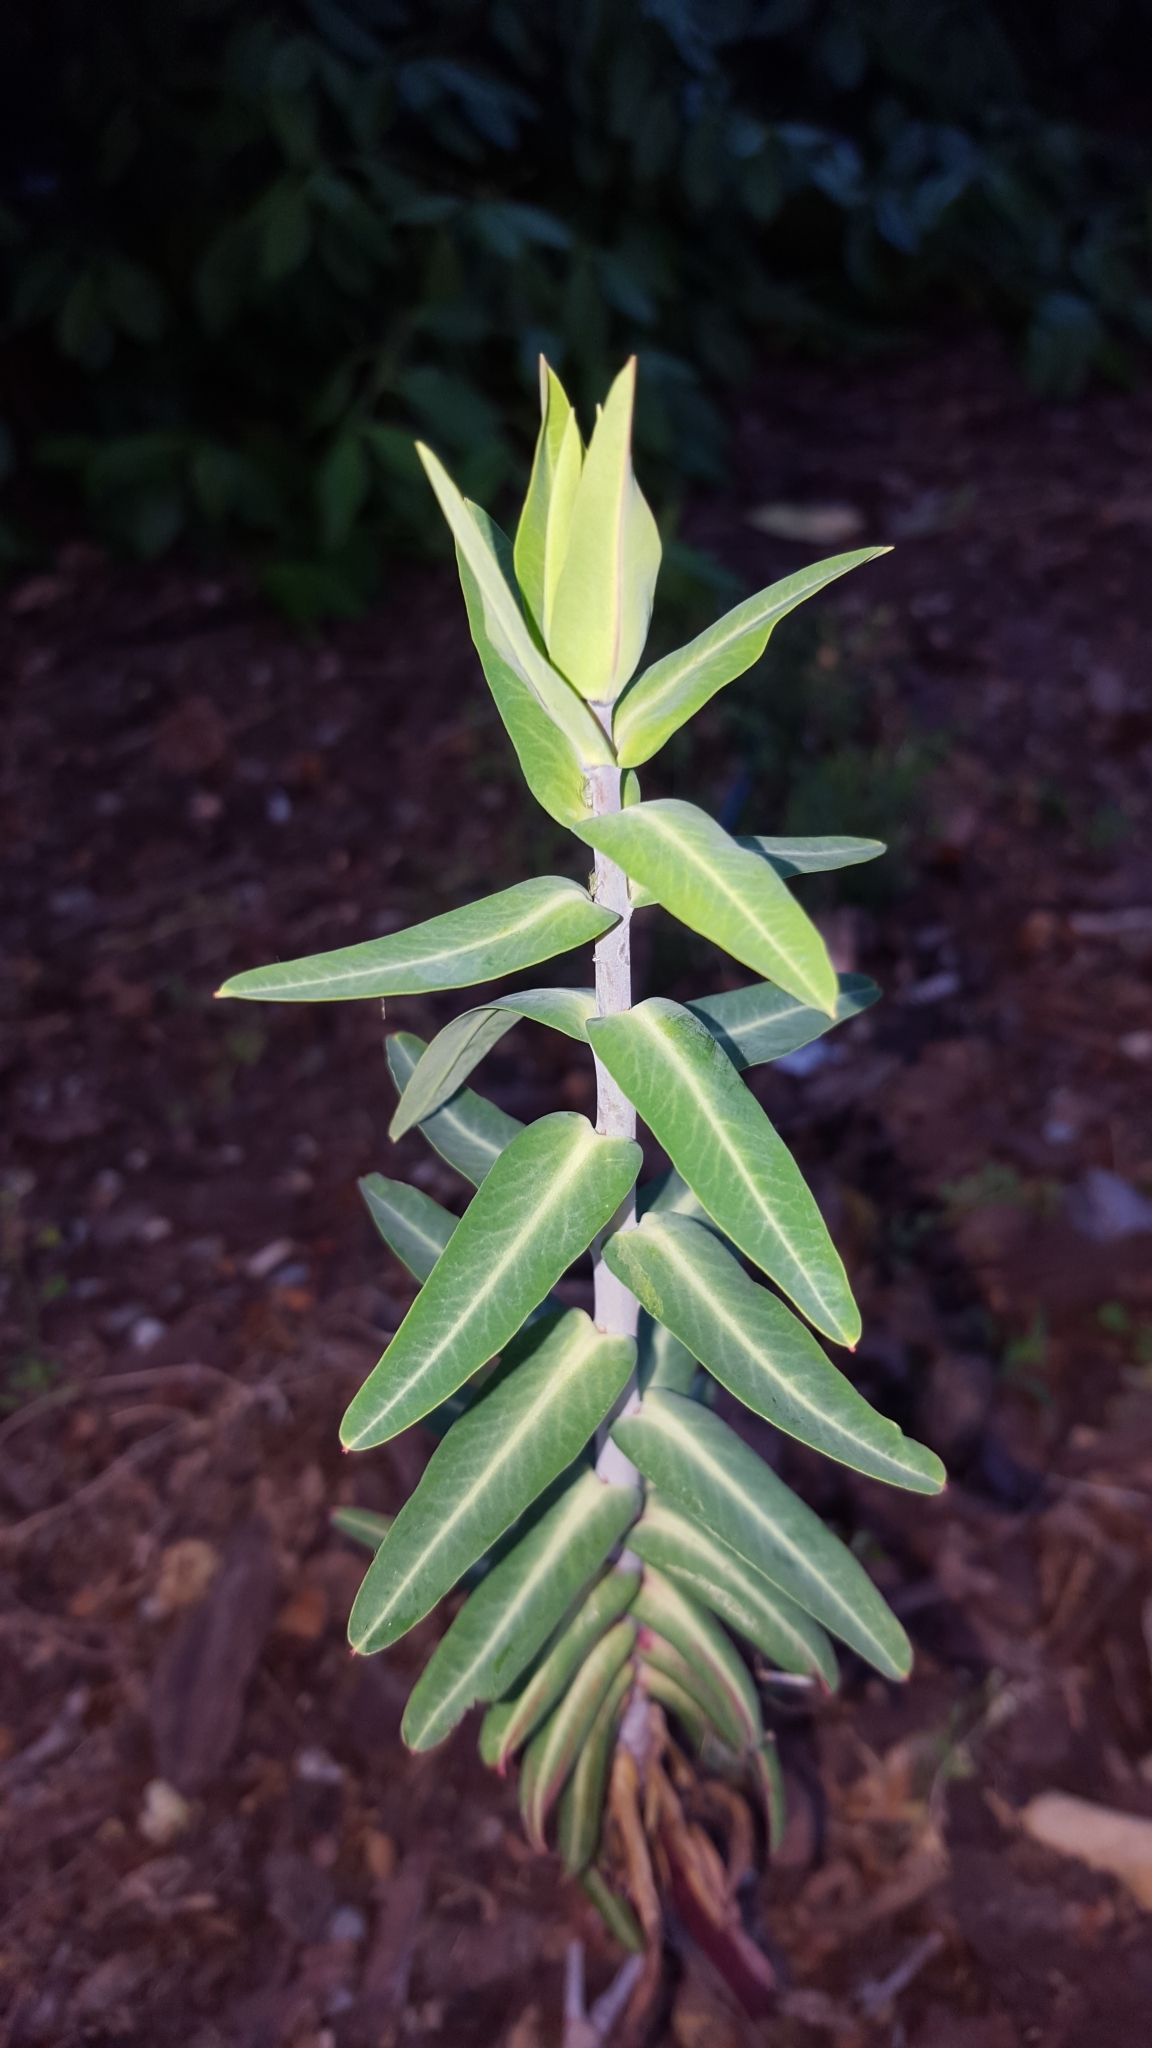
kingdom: Plantae
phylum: Tracheophyta
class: Magnoliopsida
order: Malpighiales
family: Euphorbiaceae
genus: Euphorbia
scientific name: Euphorbia lathyris
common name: Caper spurge
